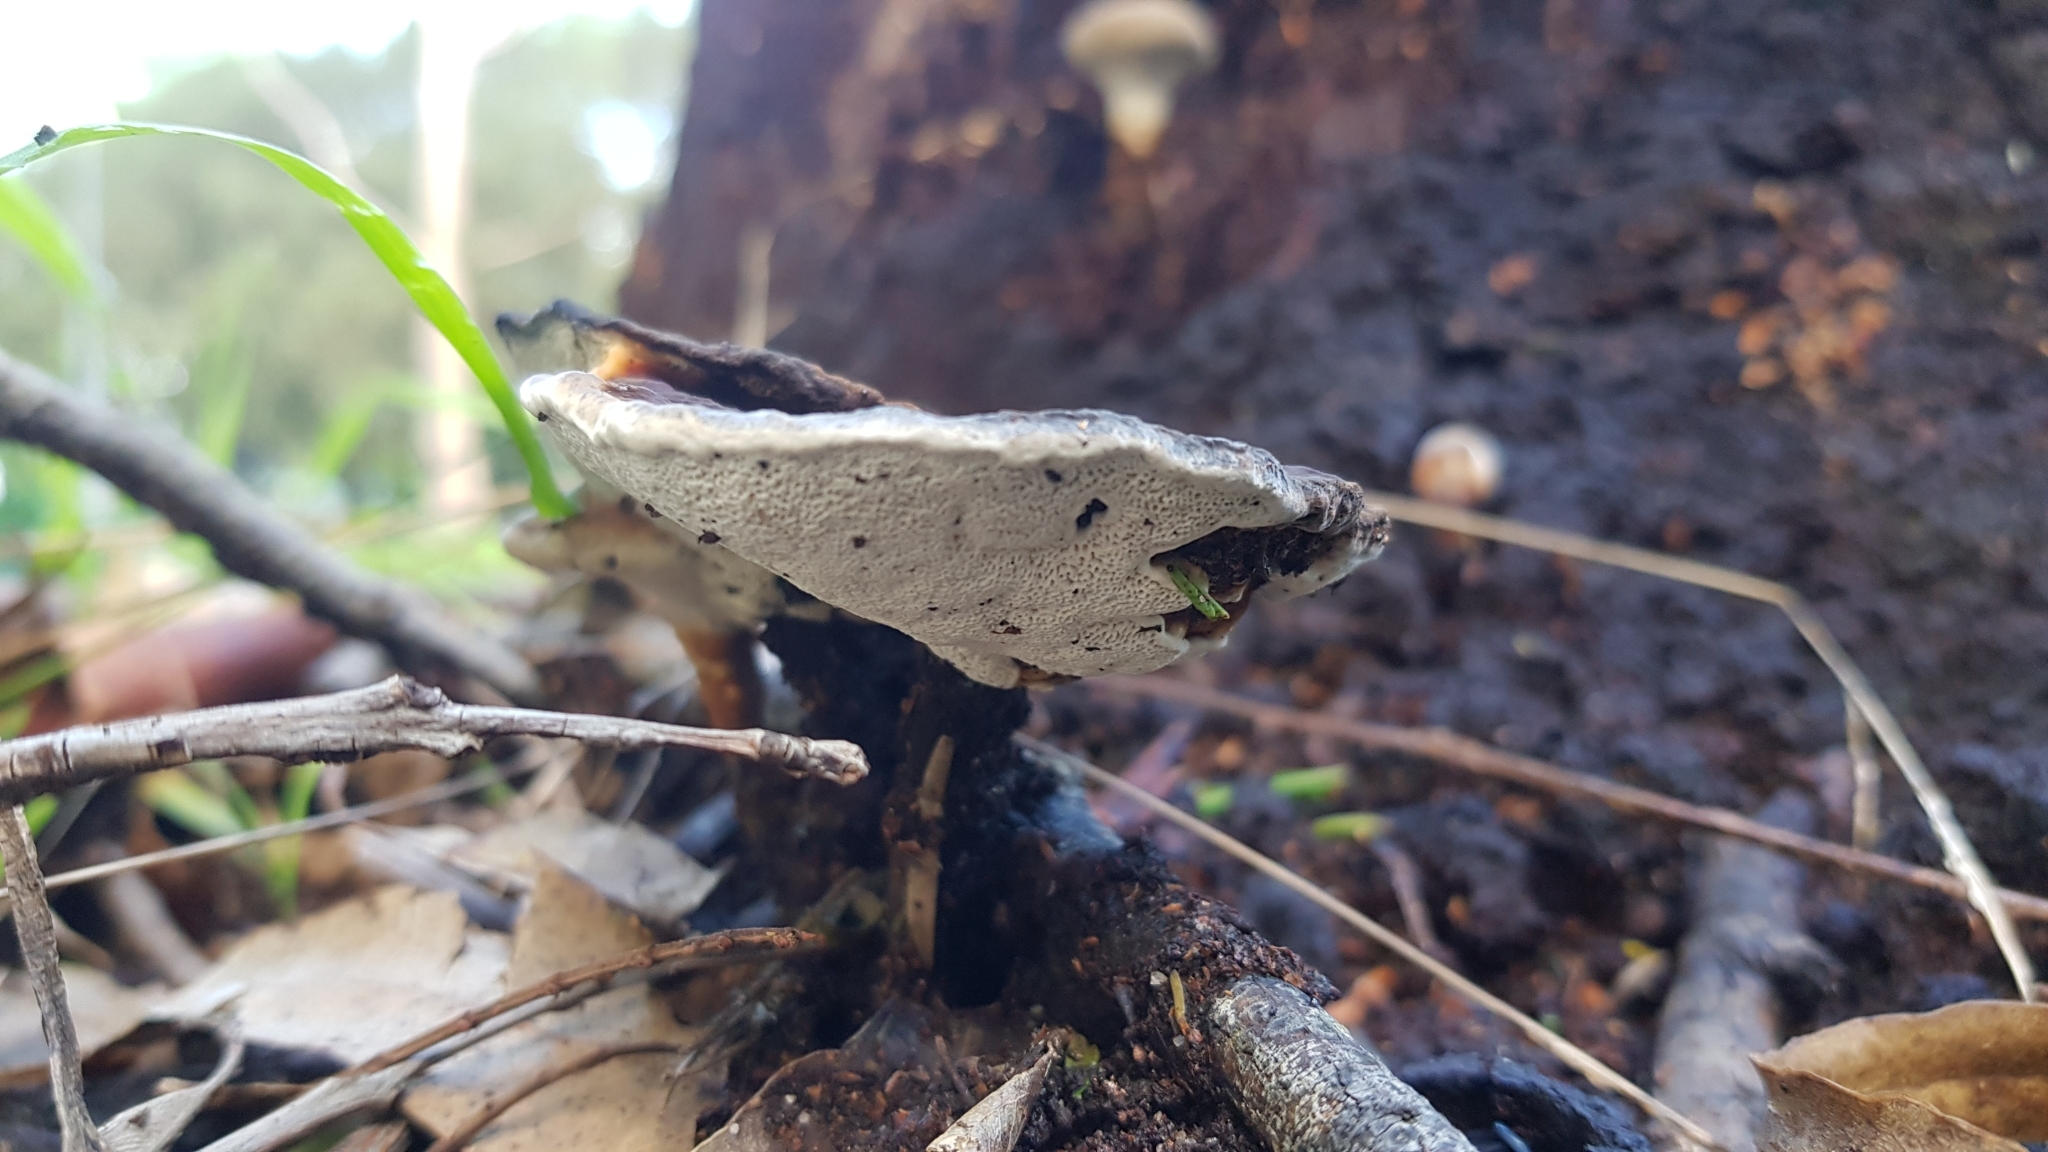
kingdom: Fungi
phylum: Basidiomycota
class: Agaricomycetes
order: Polyporales
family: Ganodermataceae
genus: Sanguinoderma
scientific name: Sanguinoderma rude
